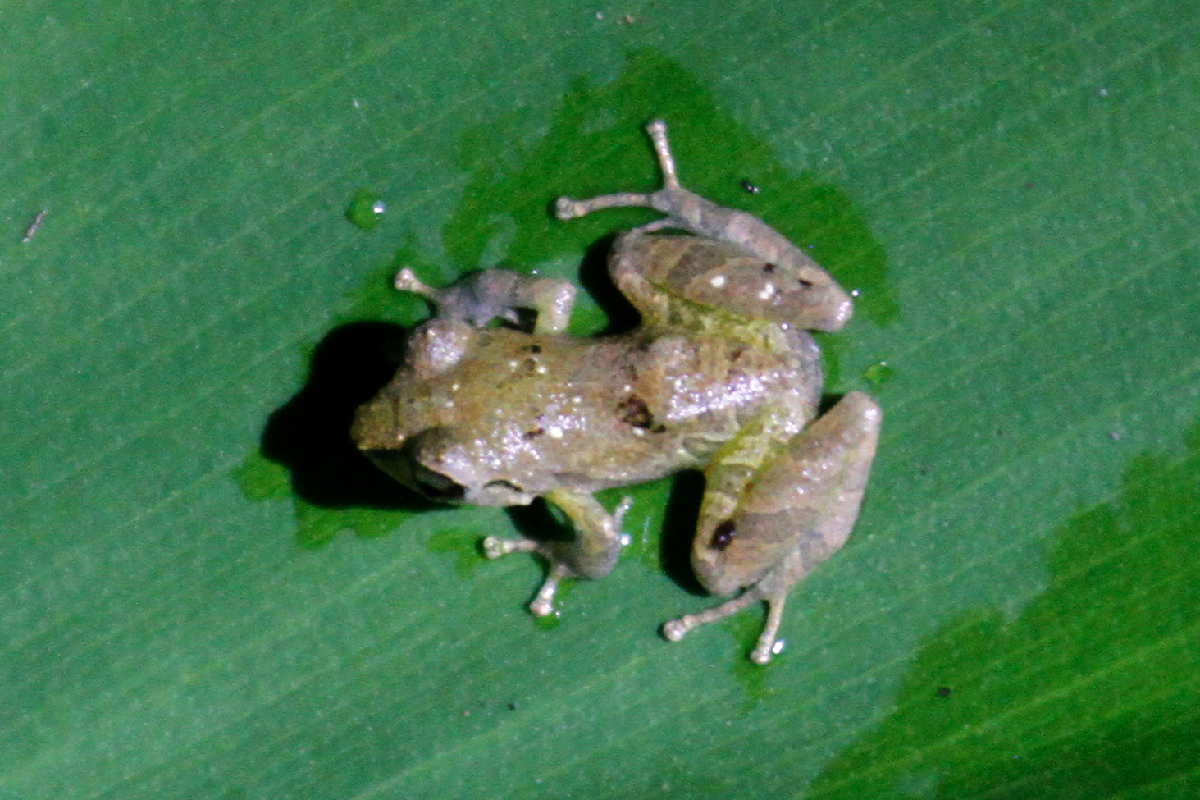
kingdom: Animalia
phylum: Chordata
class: Amphibia
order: Anura
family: Craugastoridae
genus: Pristimantis
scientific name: Pristimantis ridens
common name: Rio san juan robber frog
